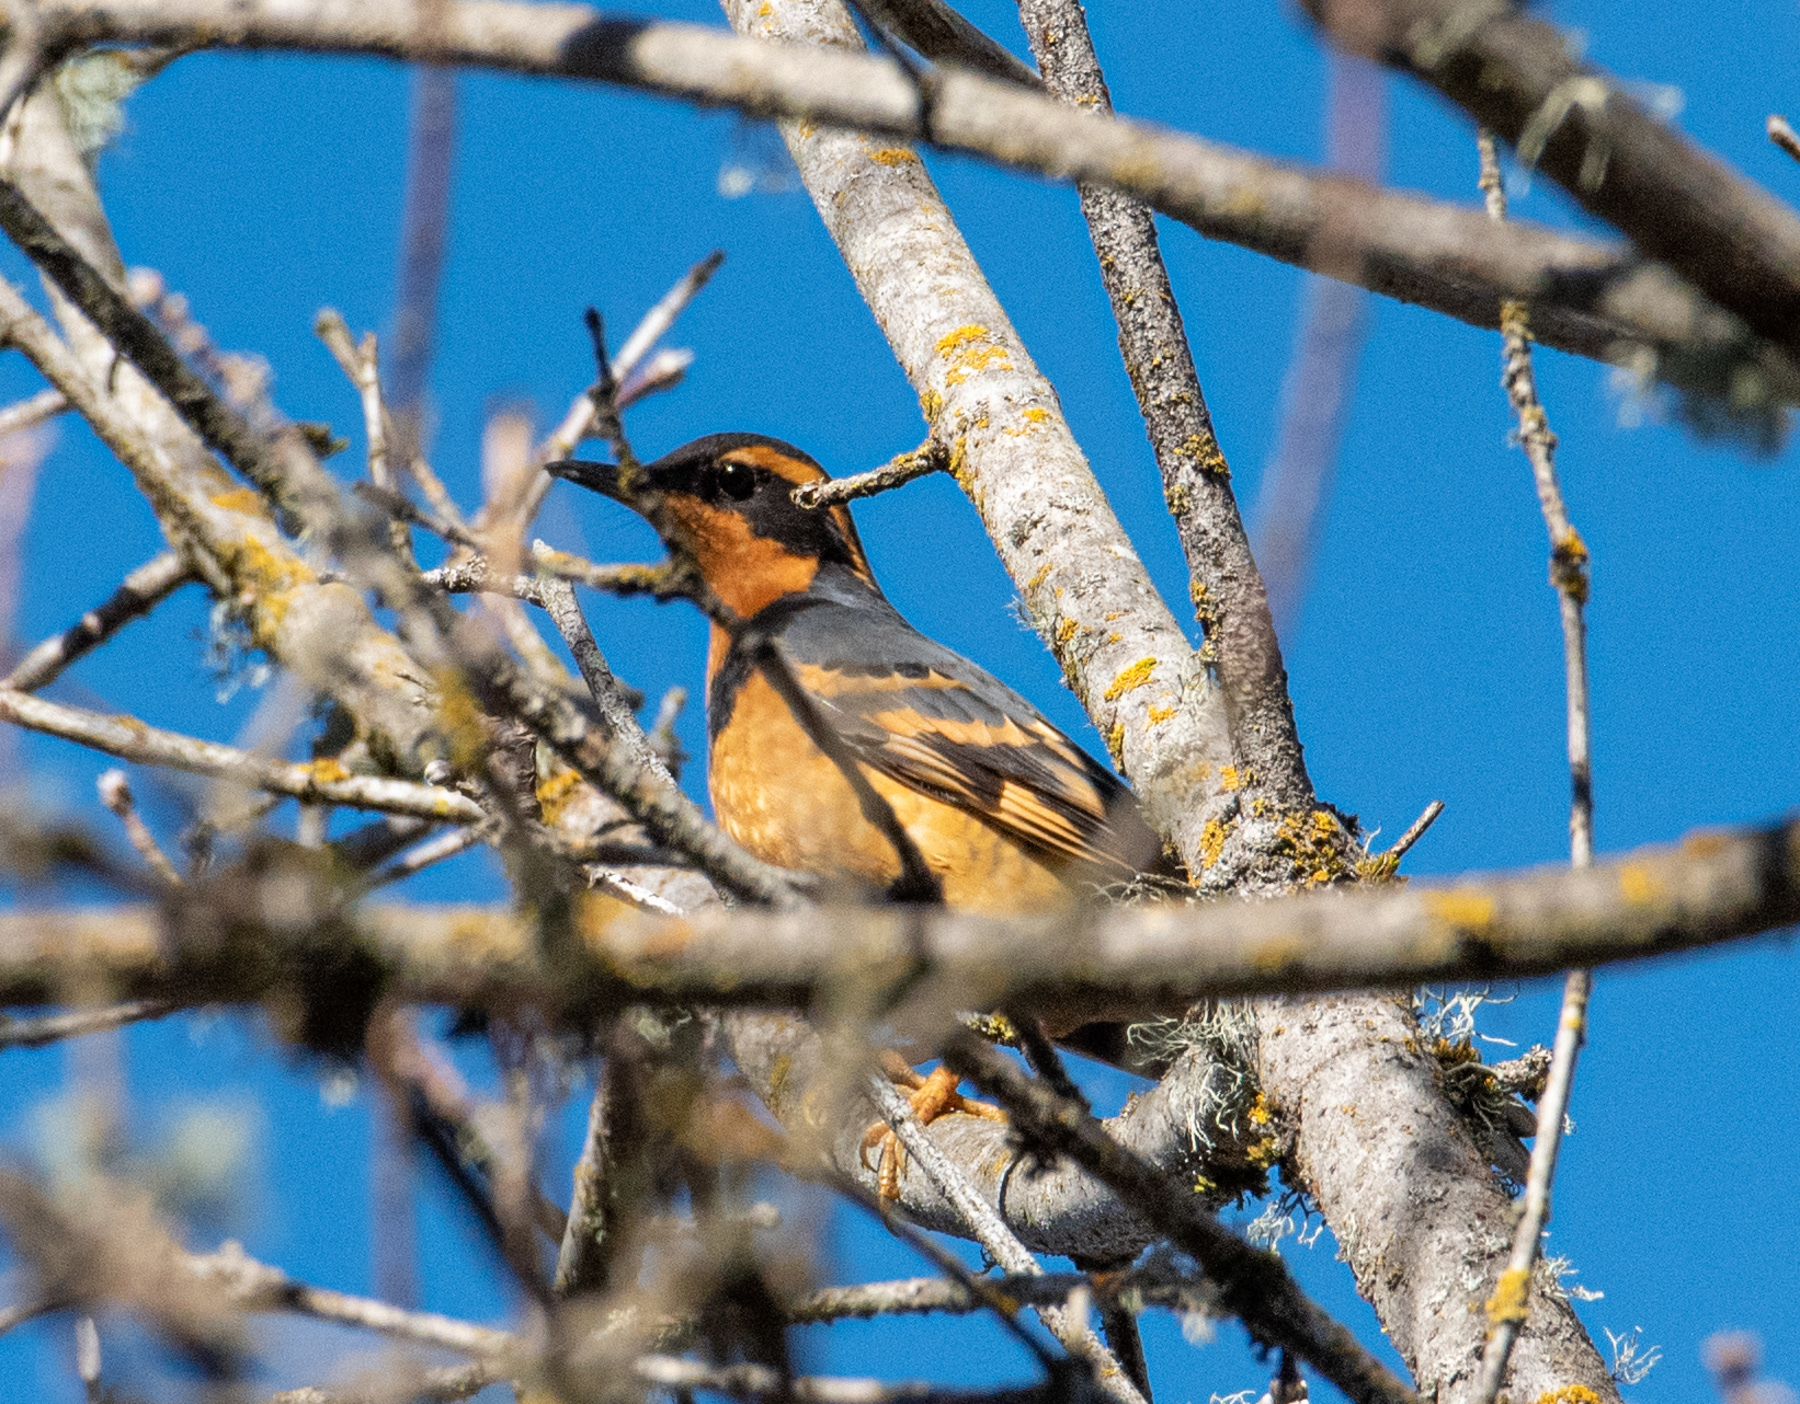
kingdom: Animalia
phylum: Chordata
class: Aves
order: Passeriformes
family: Turdidae
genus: Ixoreus
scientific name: Ixoreus naevius
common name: Varied thrush
